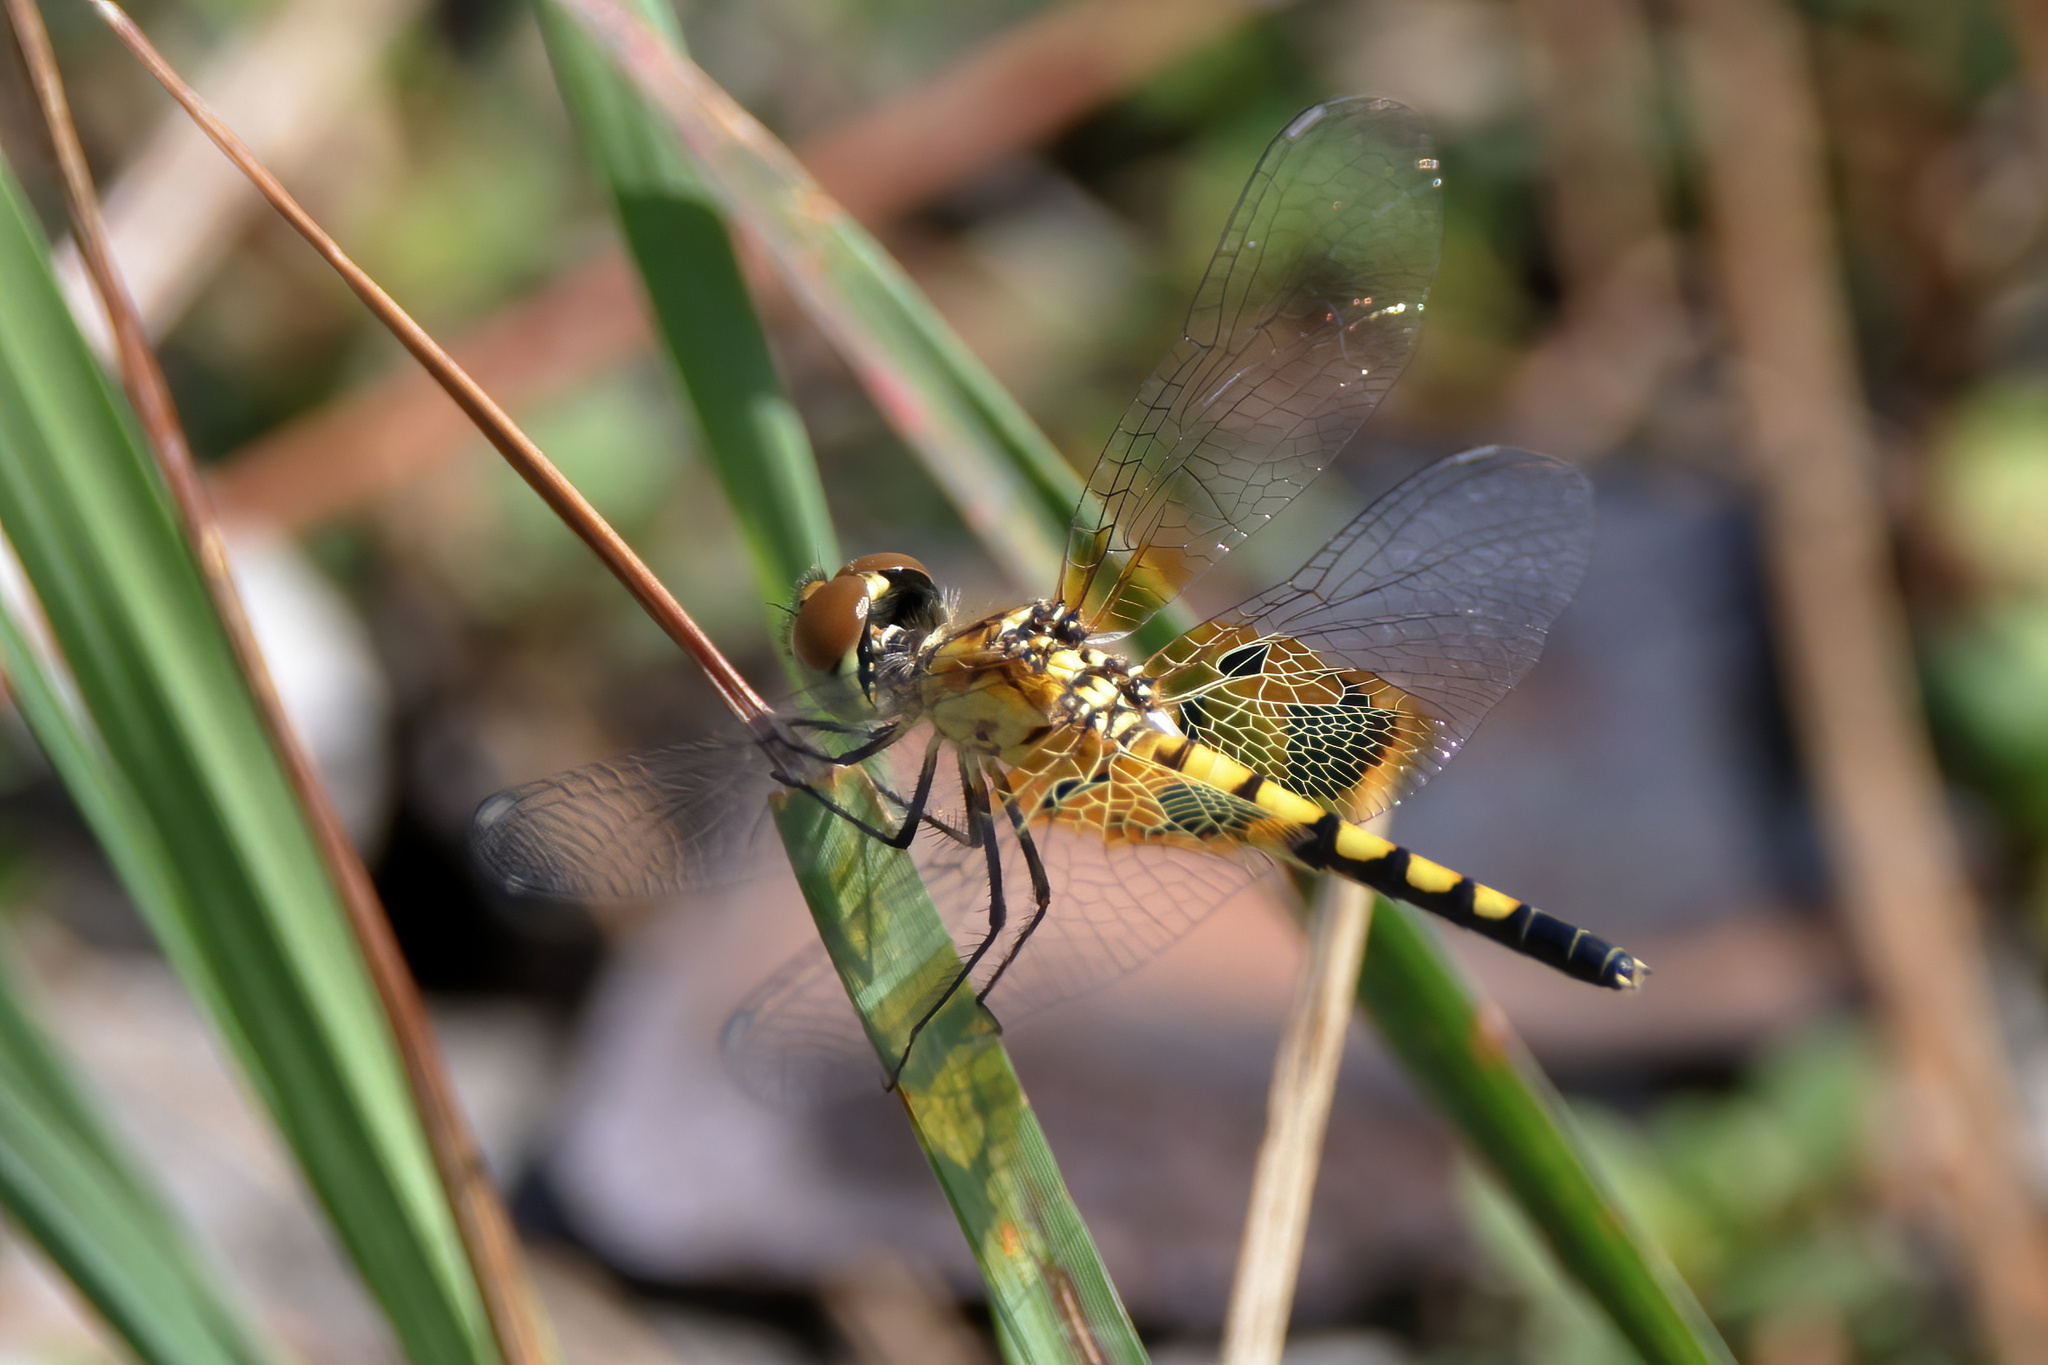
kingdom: Animalia
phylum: Arthropoda
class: Insecta
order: Odonata
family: Libellulidae
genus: Celithemis
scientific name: Celithemis amanda
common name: Amanda's pennant
